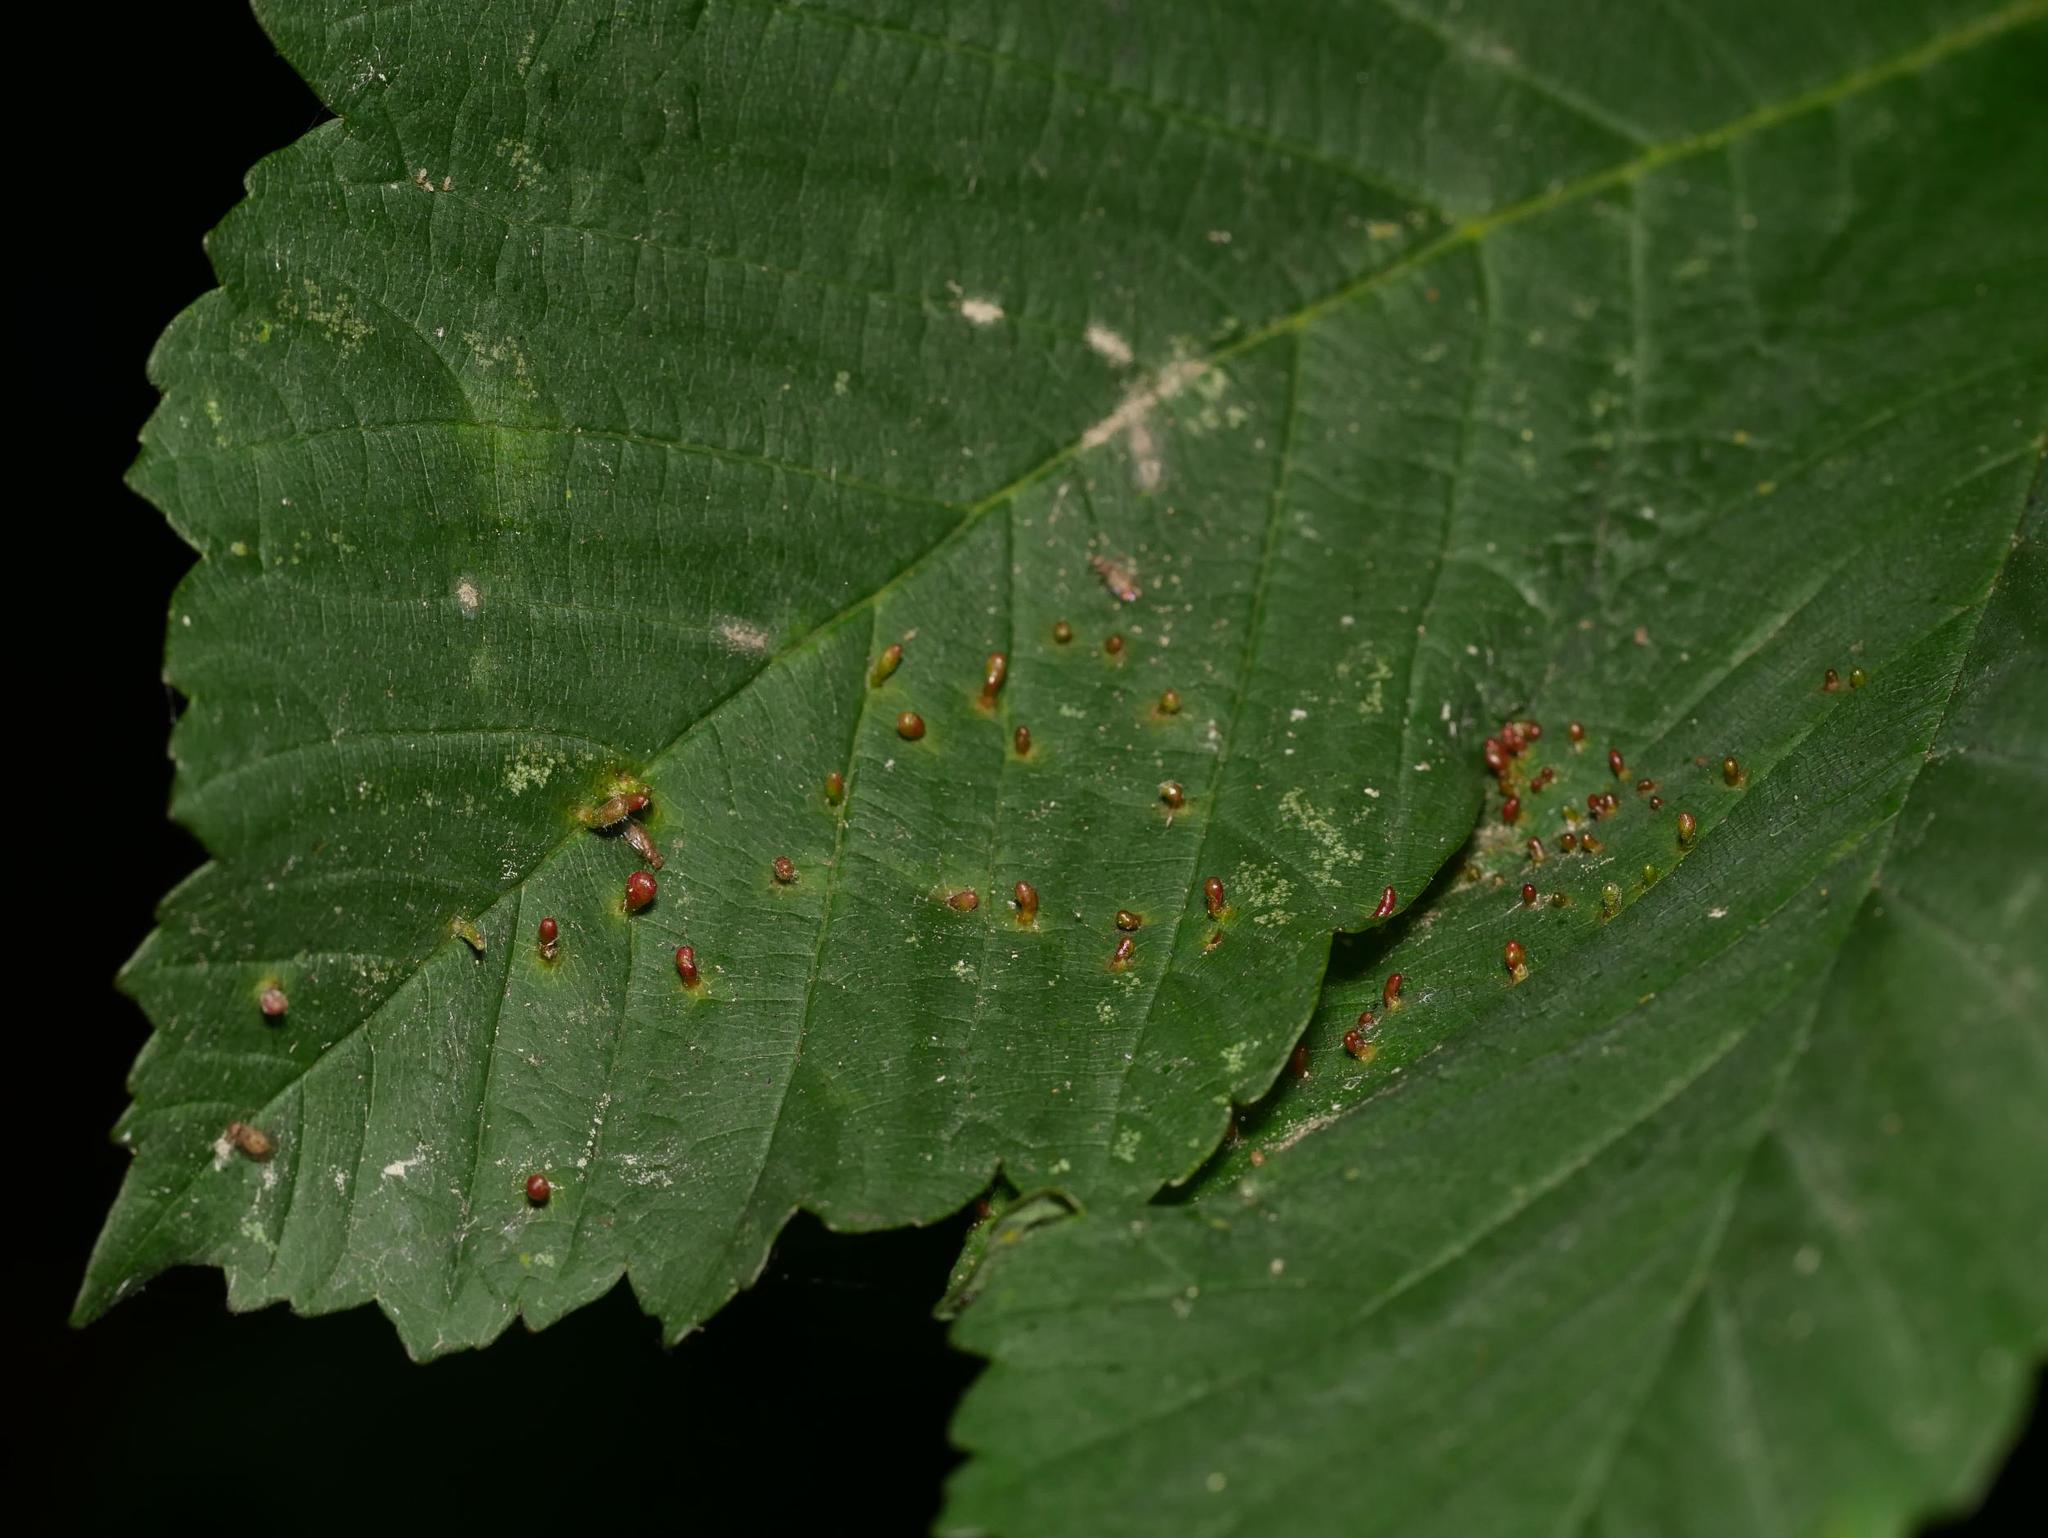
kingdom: Animalia
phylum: Arthropoda
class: Arachnida
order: Trombidiformes
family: Eriophyidae
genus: Aceria
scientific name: Aceria cephaloneus
